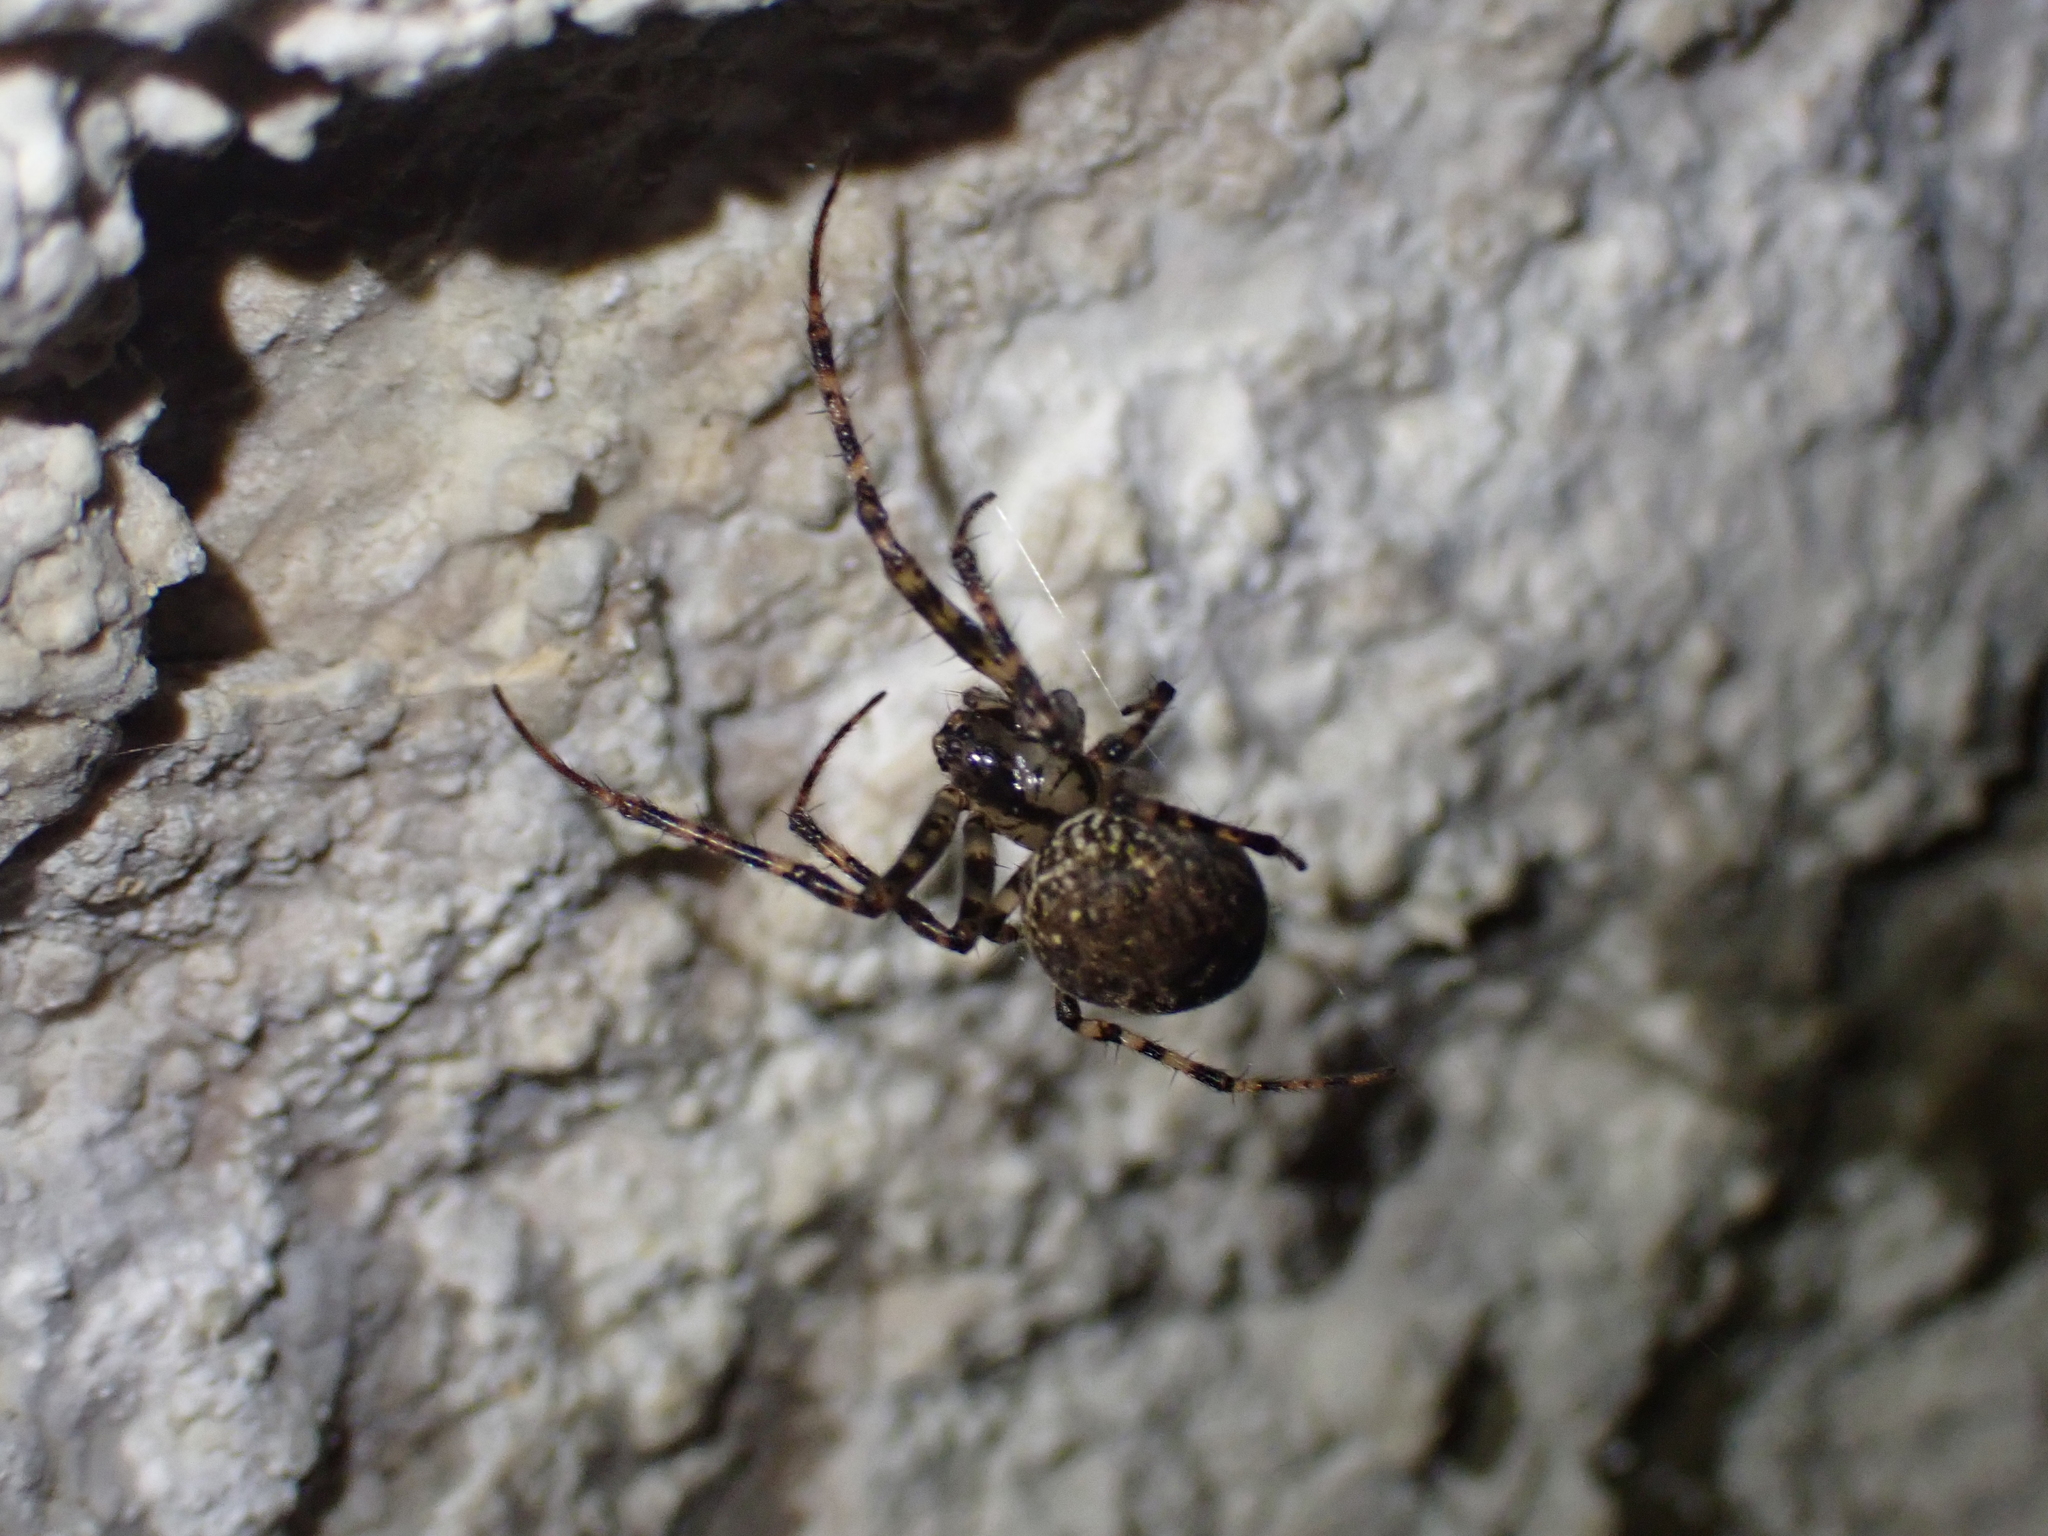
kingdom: Animalia
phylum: Arthropoda
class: Arachnida
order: Araneae
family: Tetragnathidae
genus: Metellina
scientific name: Metellina merianae
